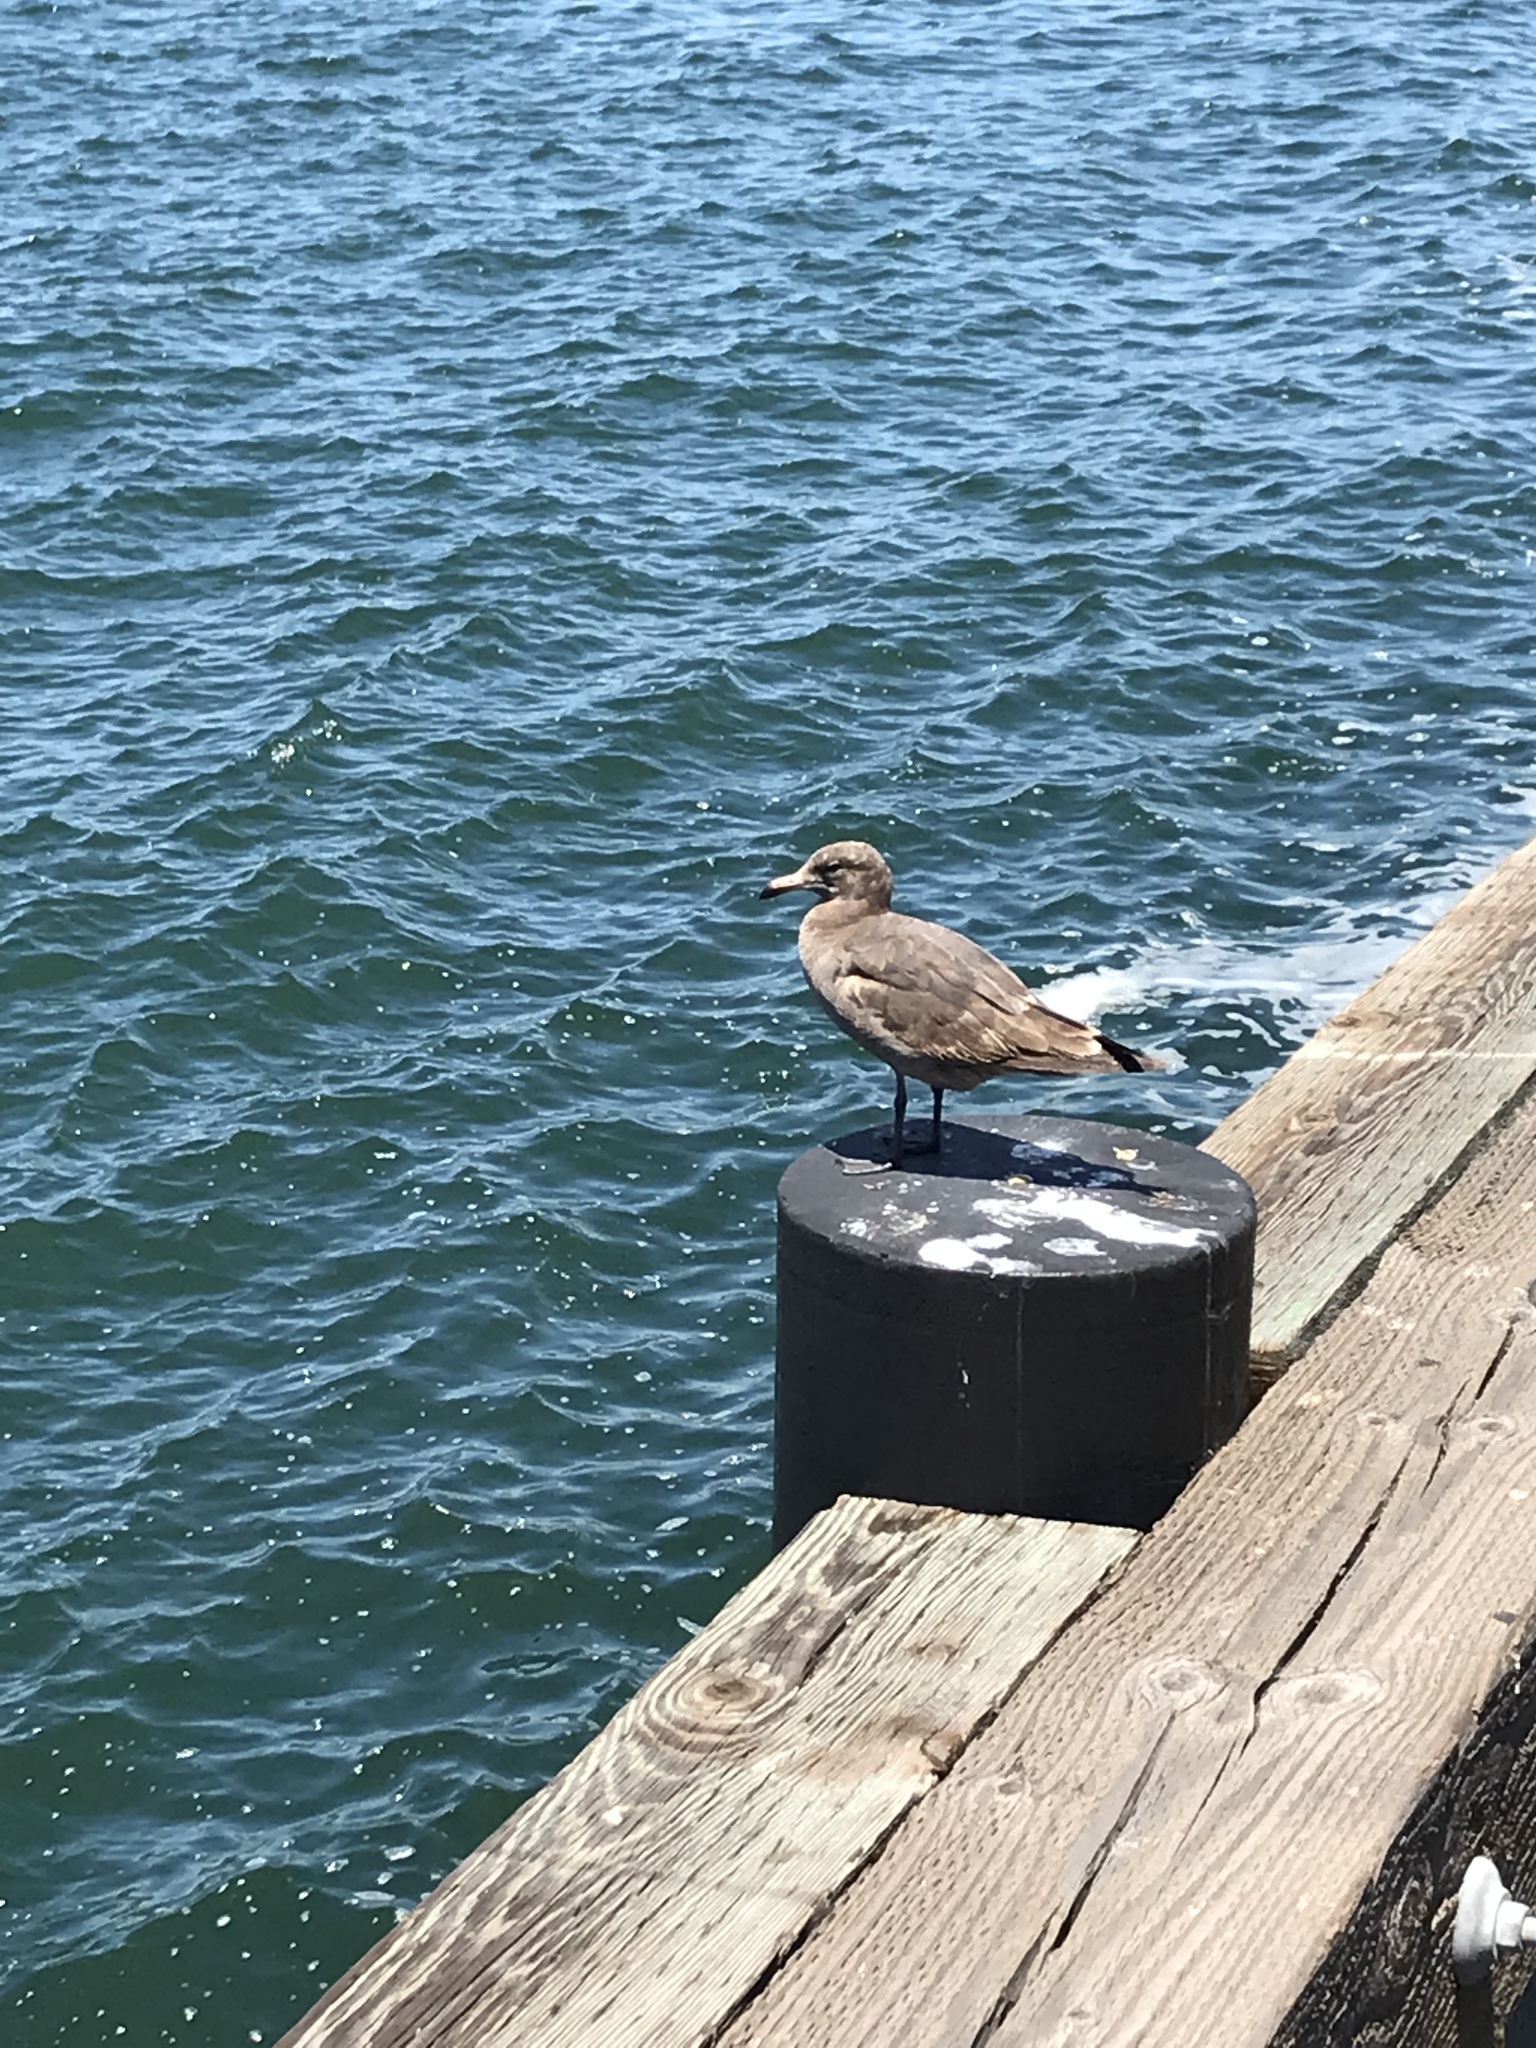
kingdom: Animalia
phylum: Chordata
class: Aves
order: Charadriiformes
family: Laridae
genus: Larus
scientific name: Larus heermanni
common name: Heermann's gull
